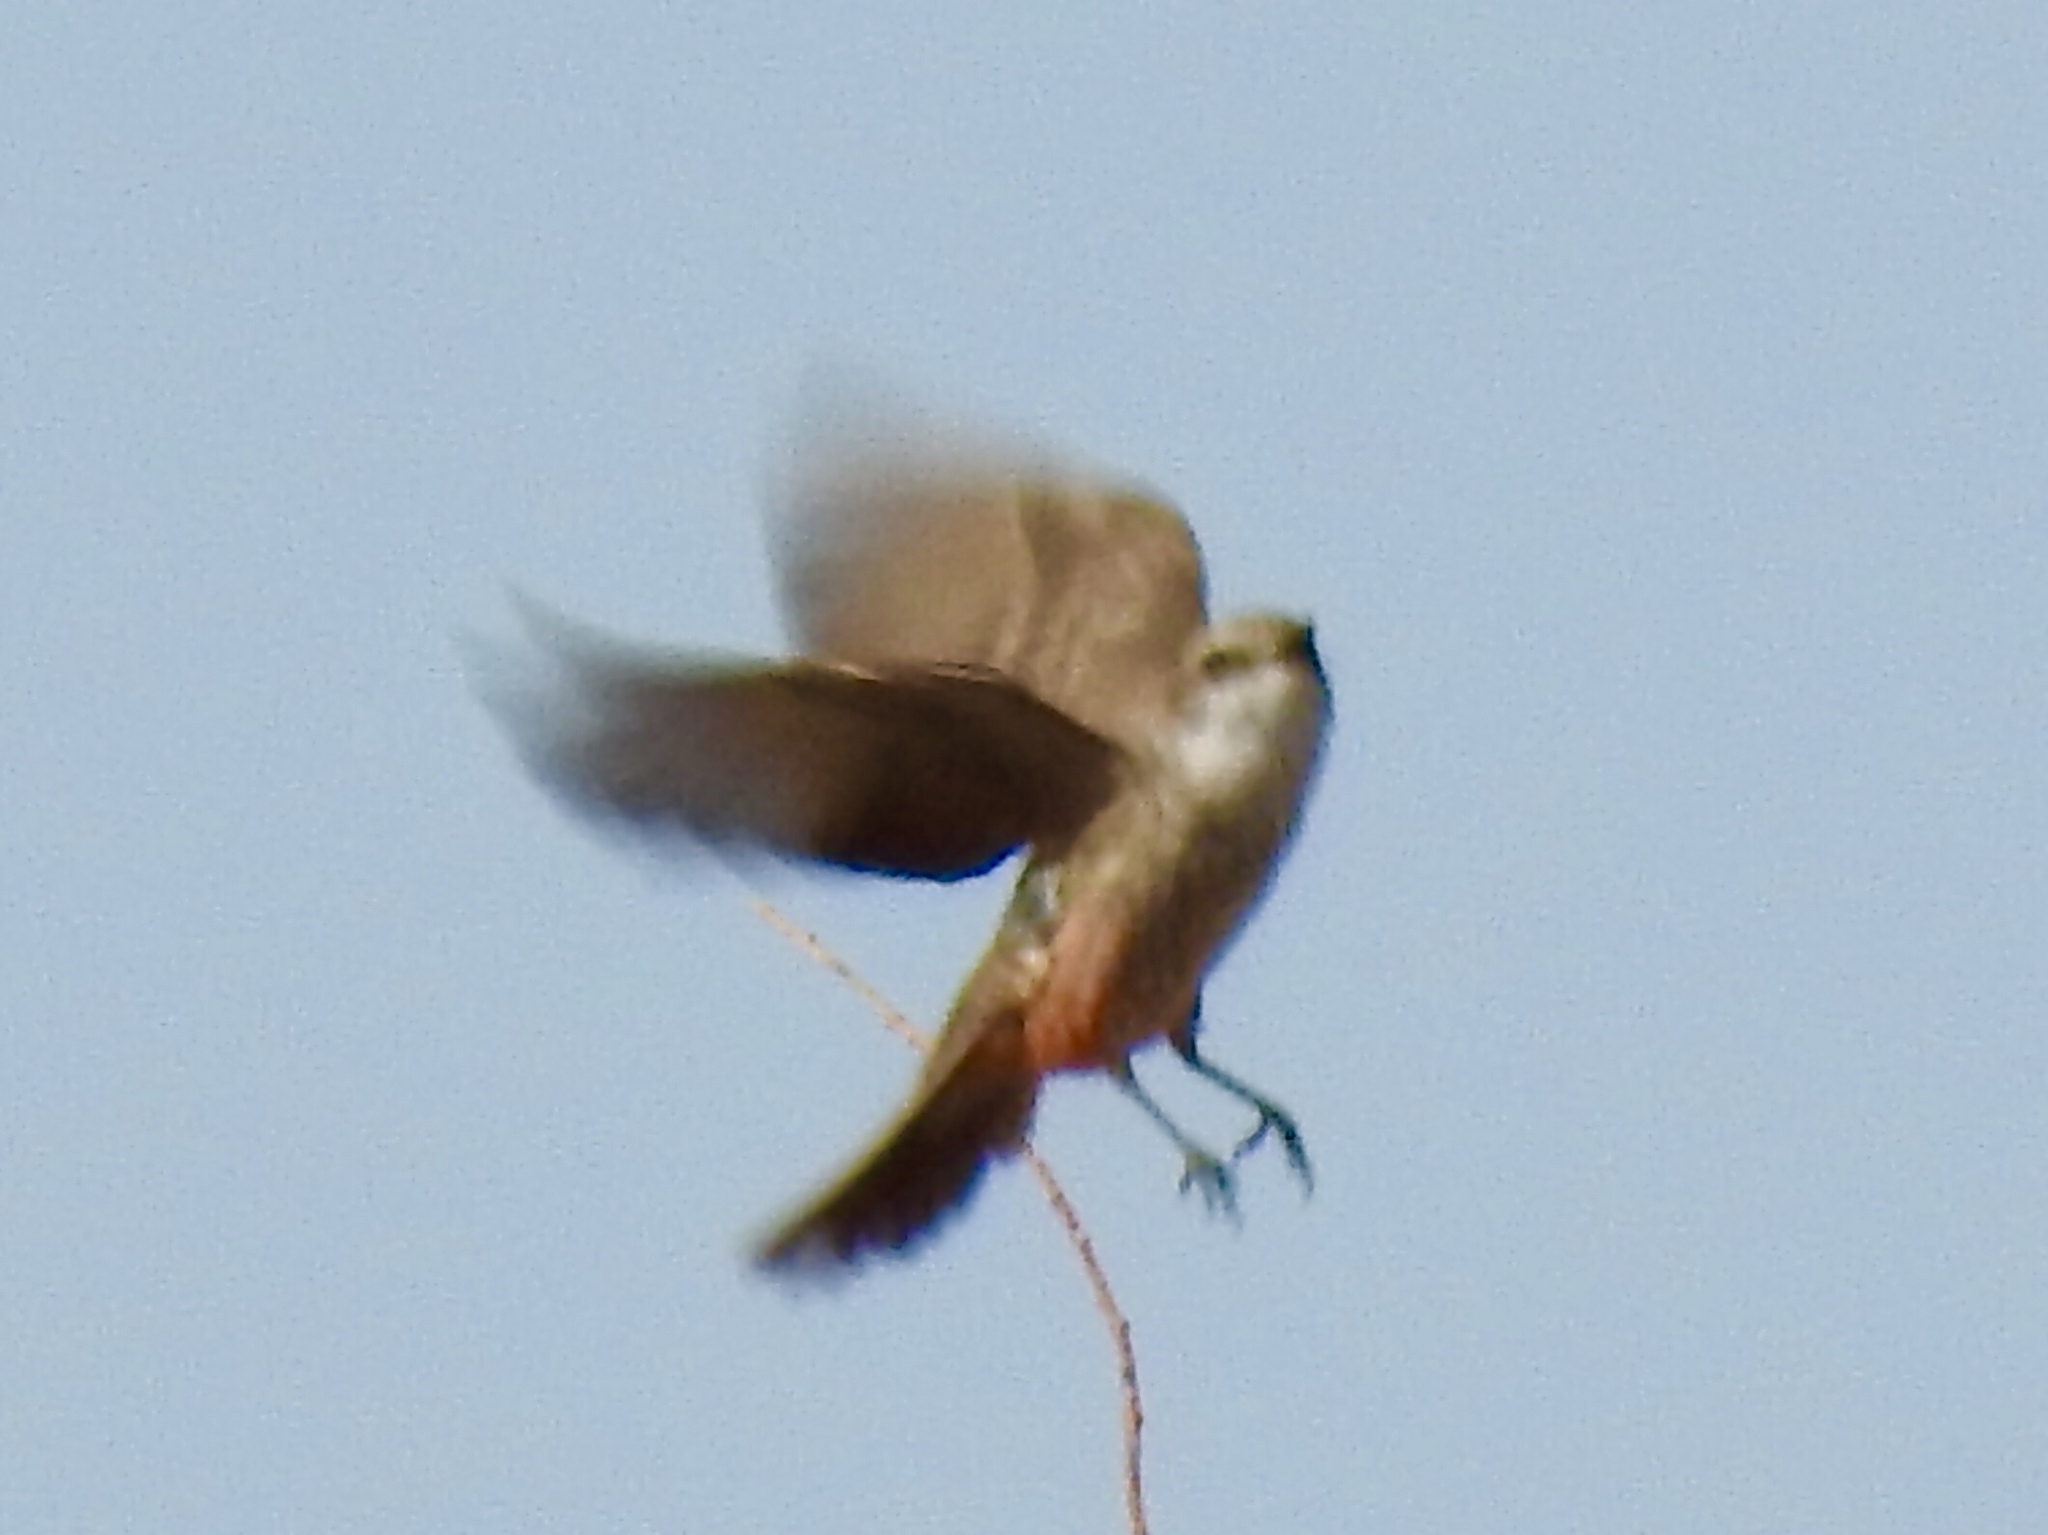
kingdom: Animalia
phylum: Chordata
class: Aves
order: Passeriformes
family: Tyrannidae
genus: Sayornis
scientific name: Sayornis saya
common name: Say's phoebe
